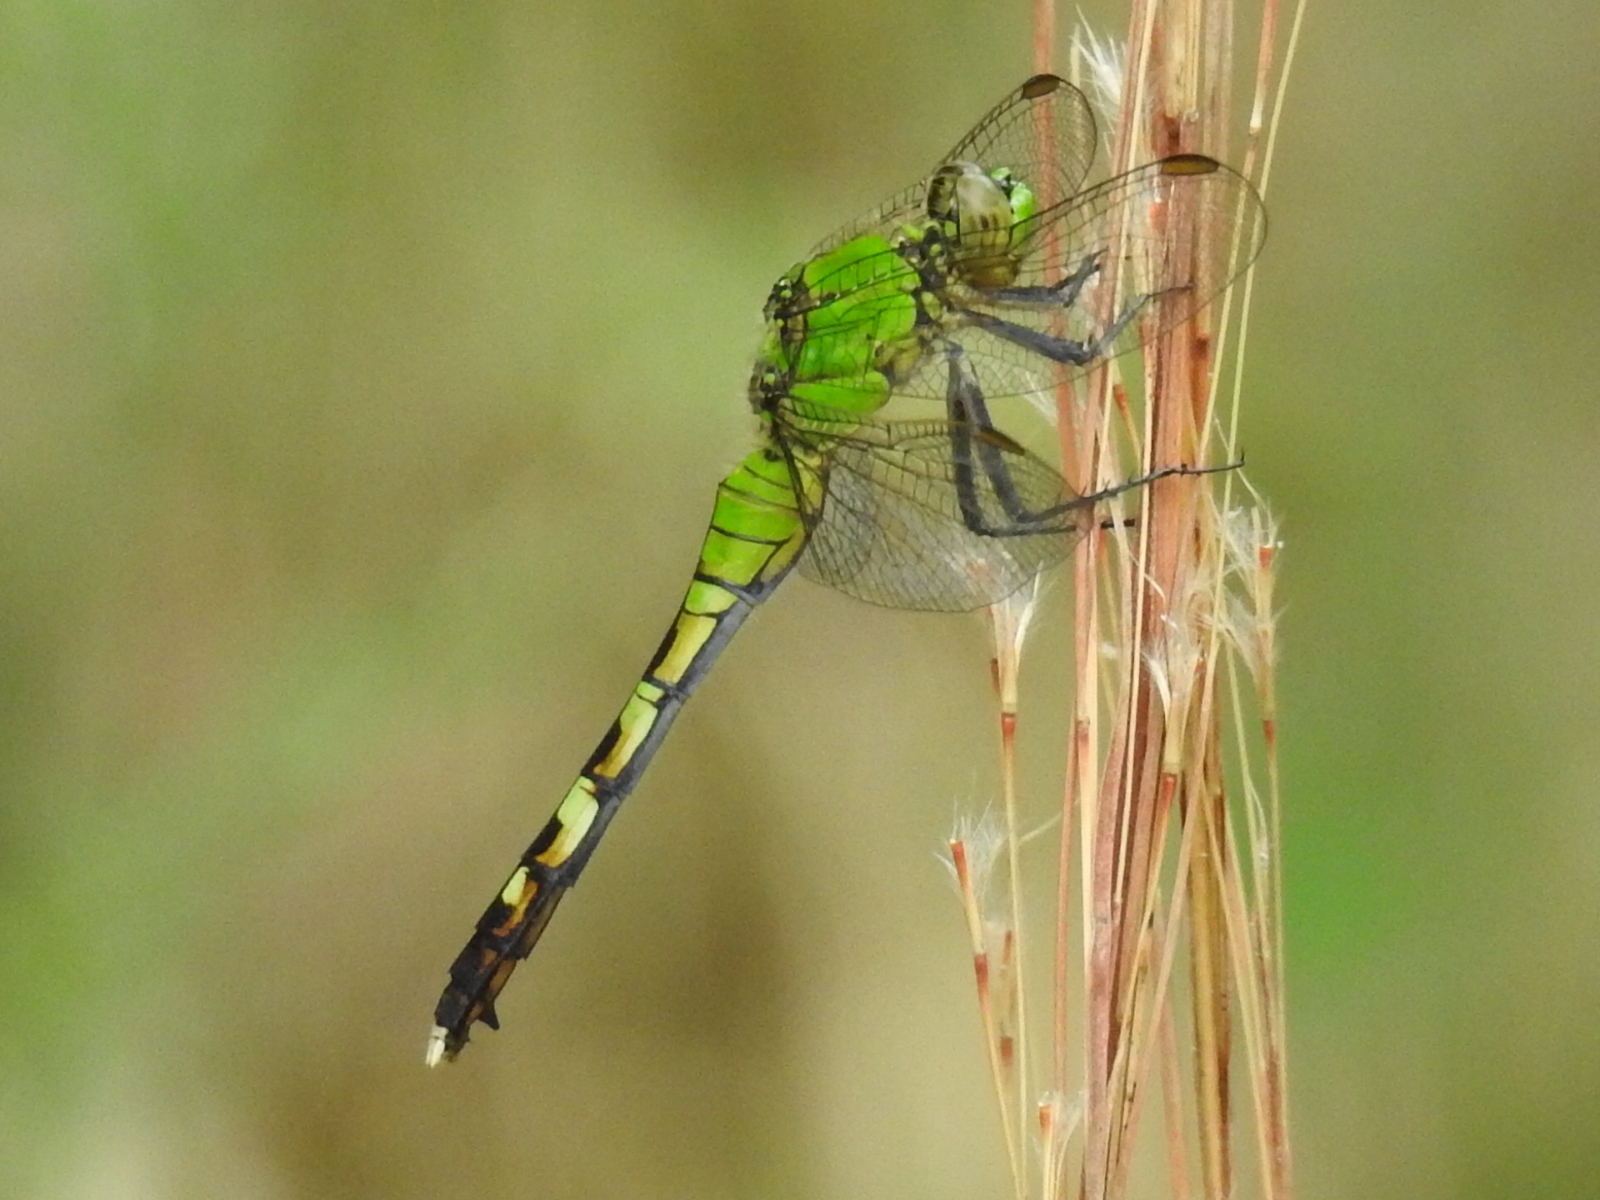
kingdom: Animalia
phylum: Arthropoda
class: Insecta
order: Odonata
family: Libellulidae
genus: Erythemis
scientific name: Erythemis simplicicollis
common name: Eastern pondhawk
